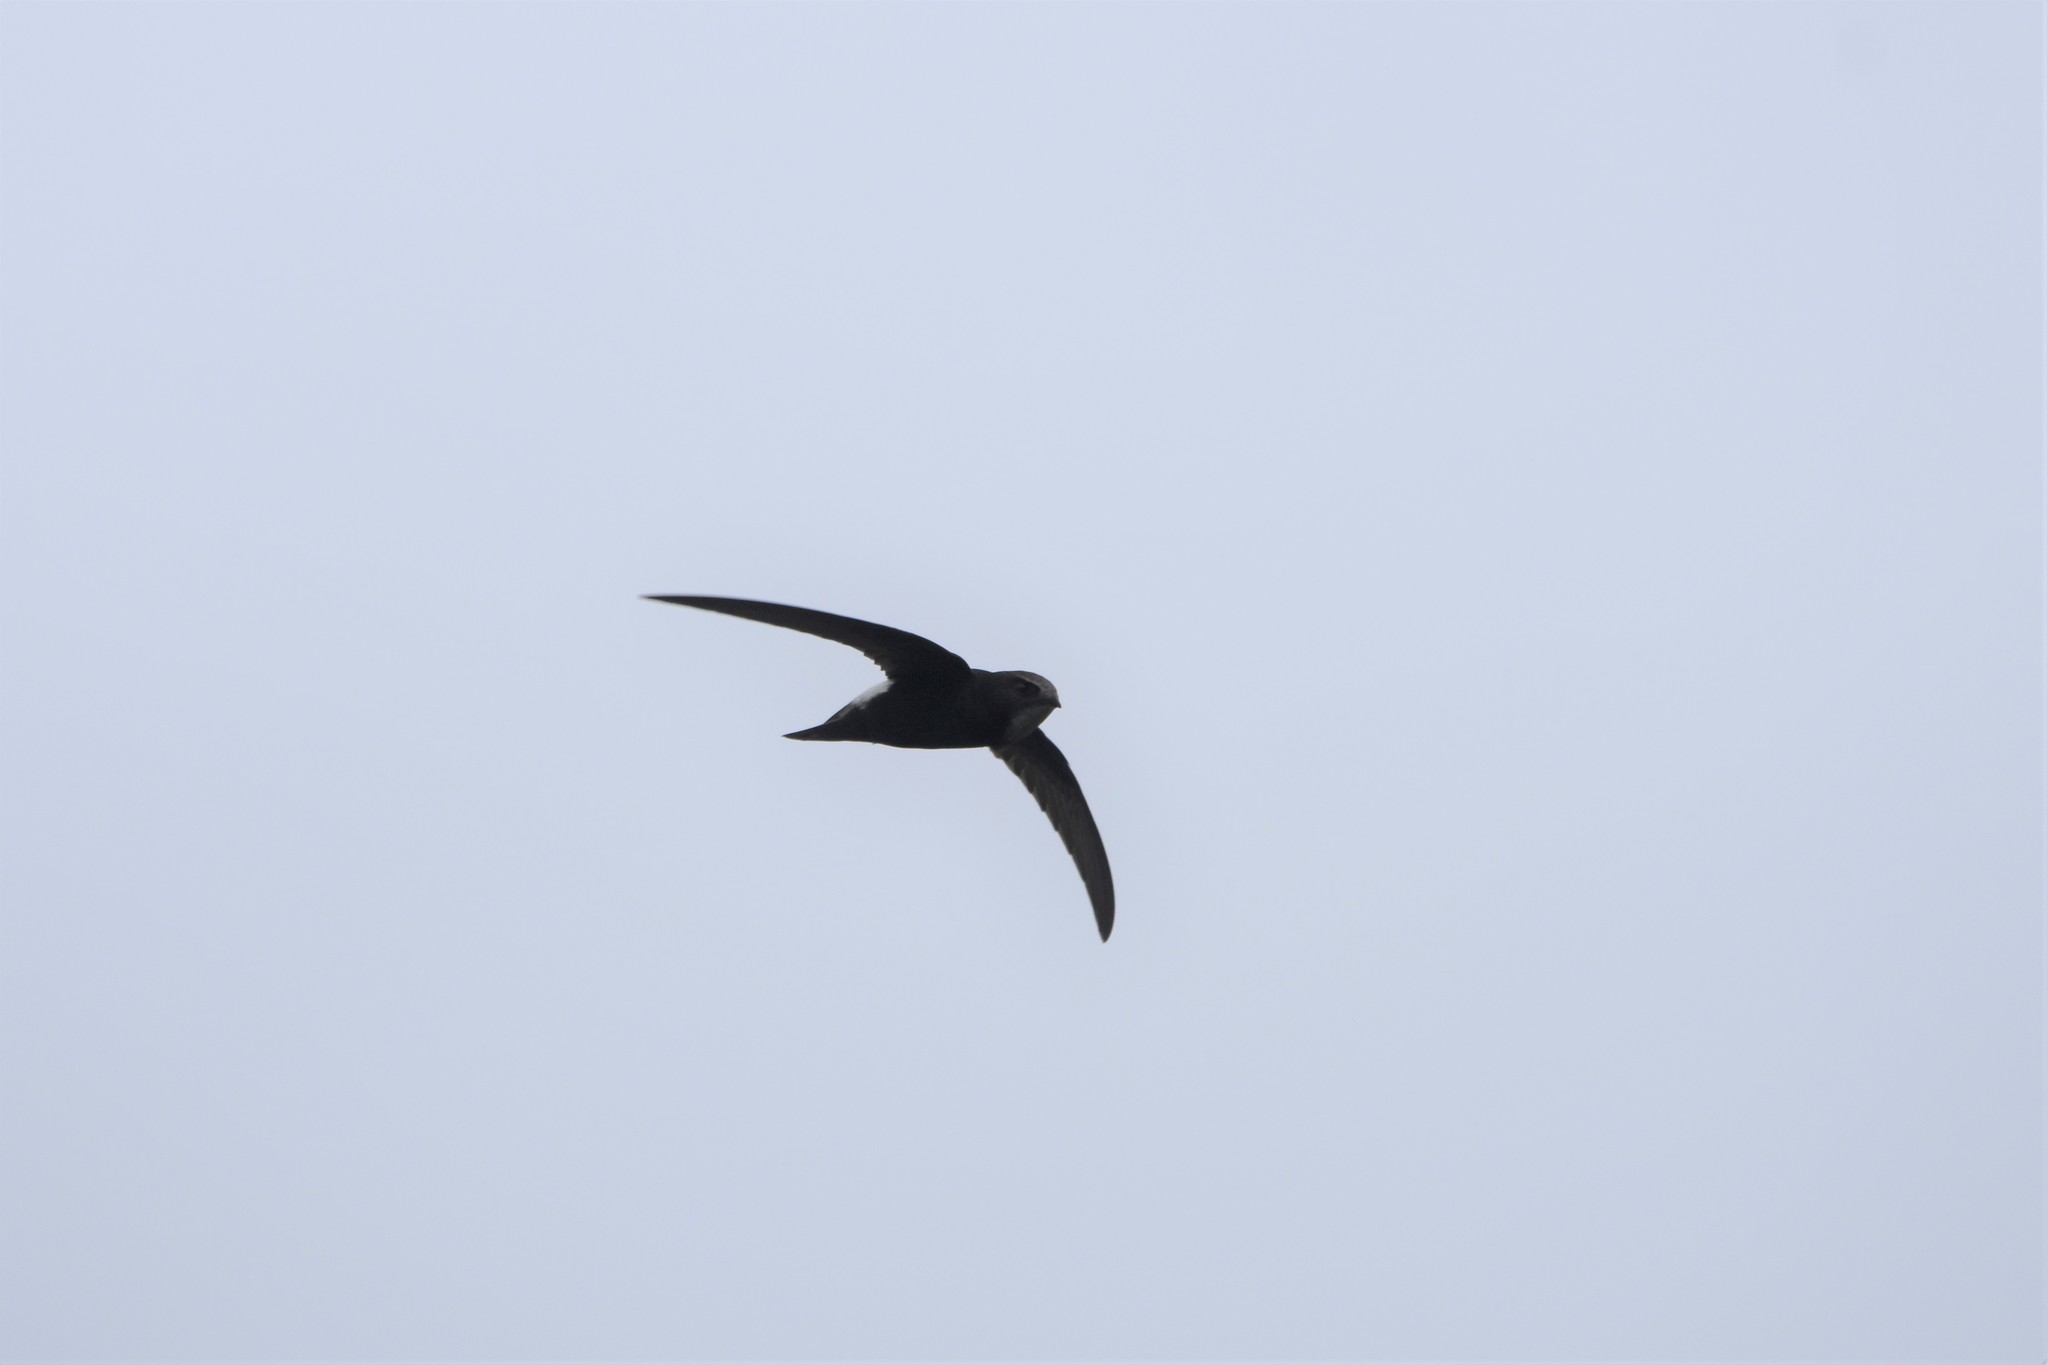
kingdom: Animalia
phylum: Chordata
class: Aves
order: Apodiformes
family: Apodidae
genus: Apus
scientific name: Apus affinis
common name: Little swift
